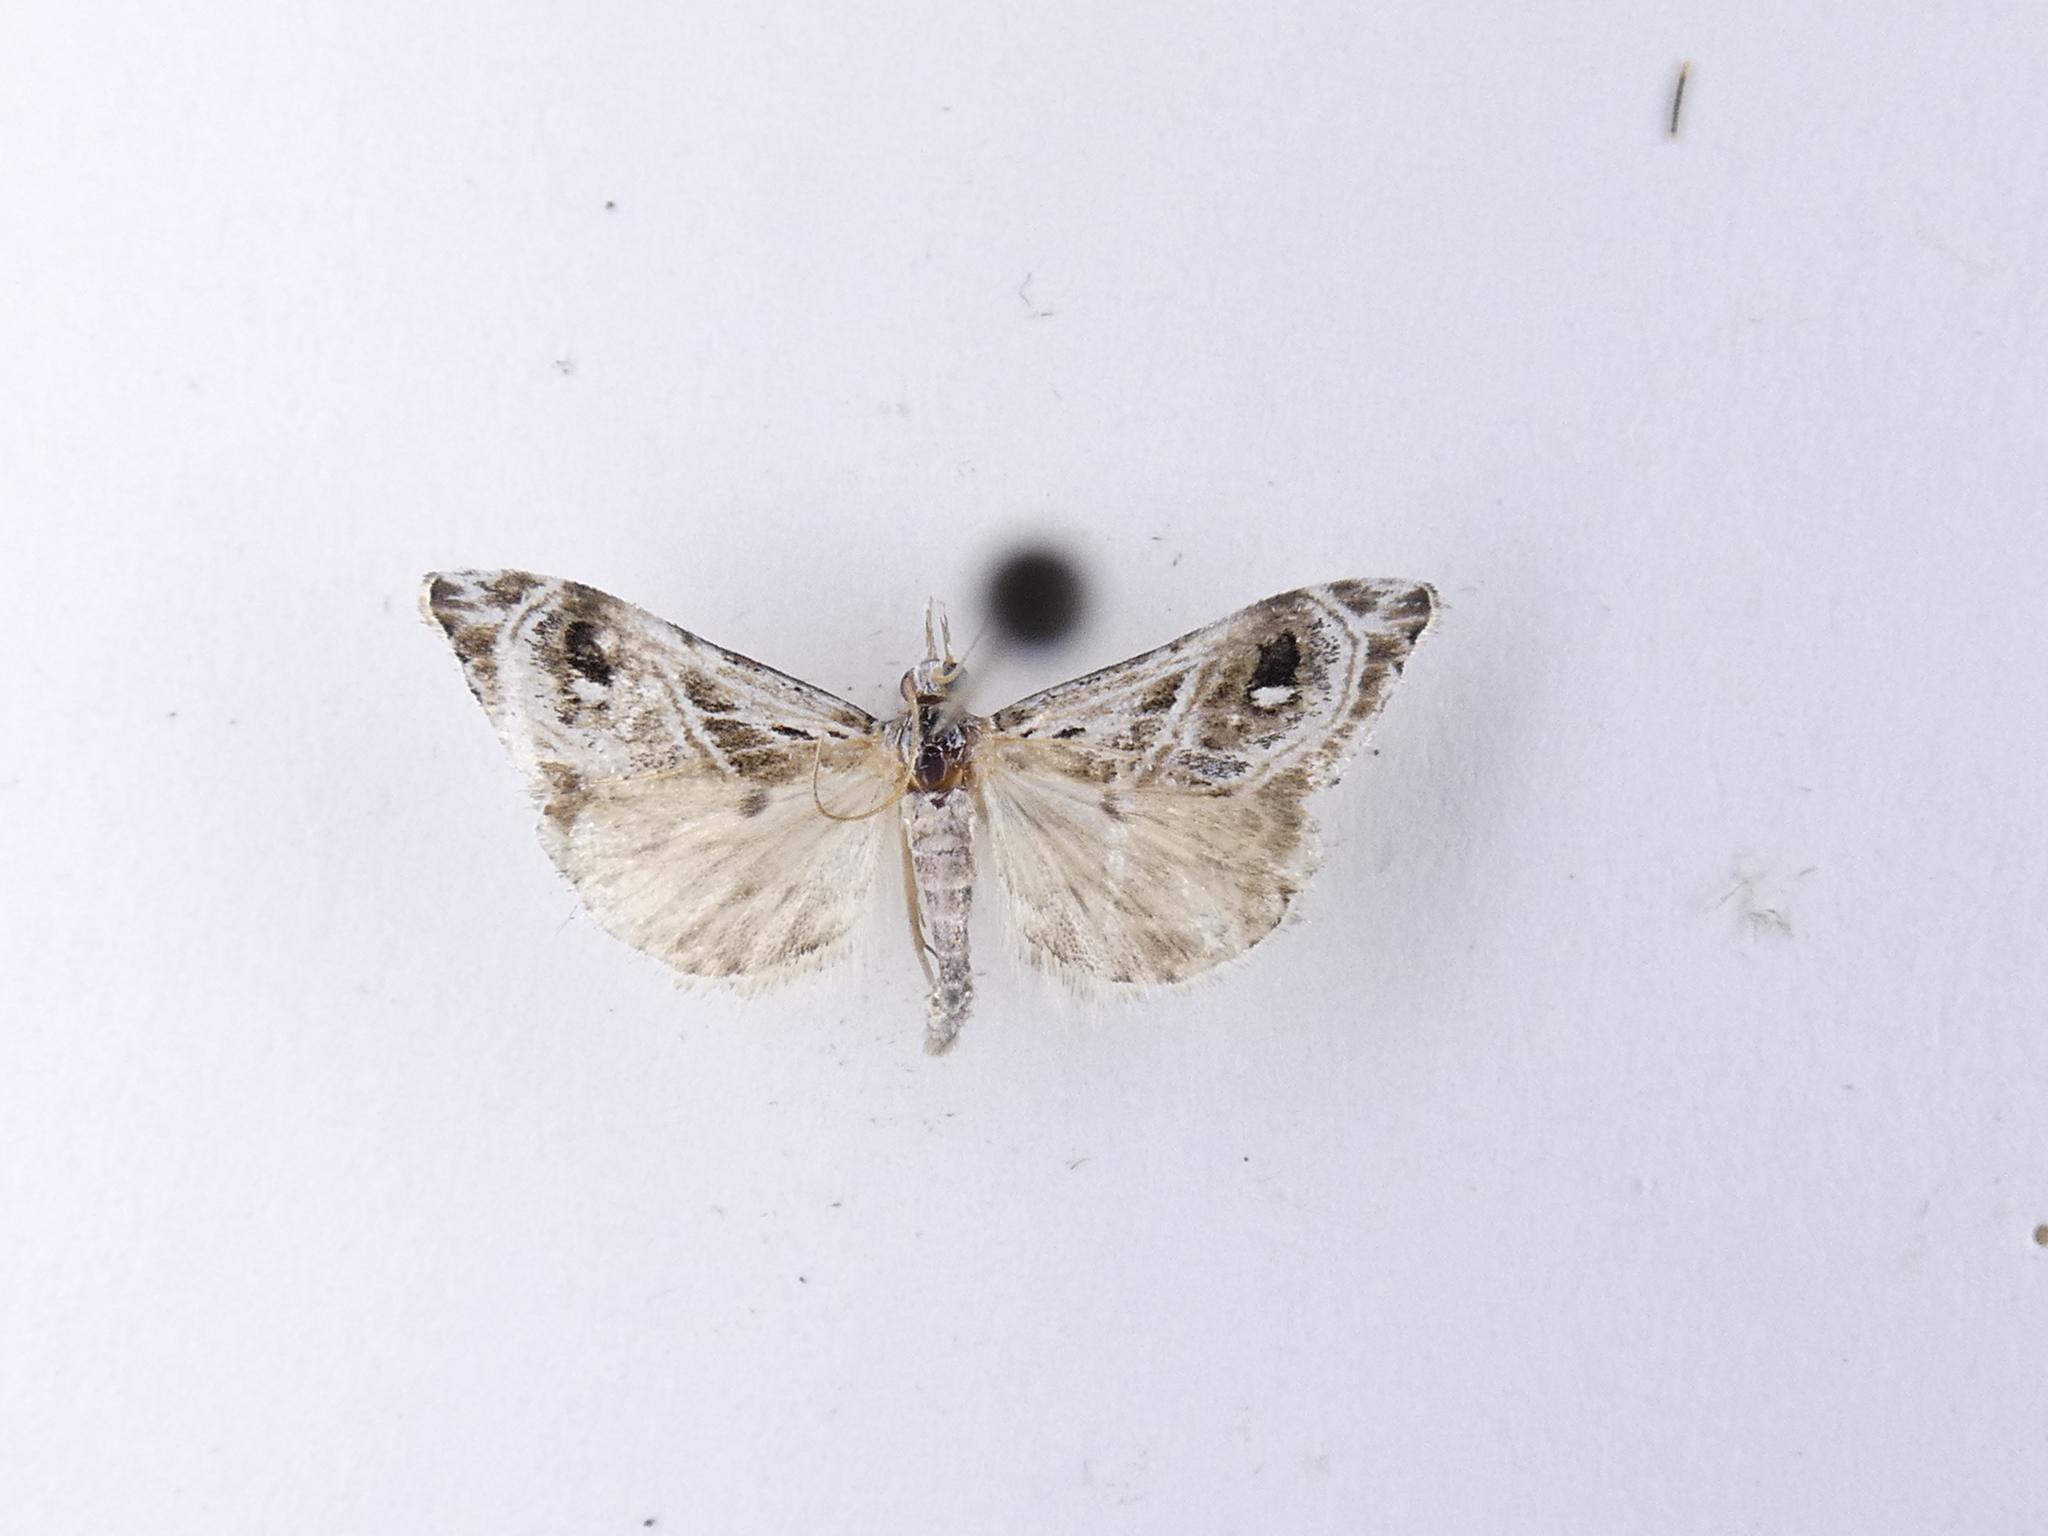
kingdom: Animalia
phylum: Arthropoda
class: Insecta
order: Lepidoptera
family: Crambidae
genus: Gadira
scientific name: Gadira acerella
